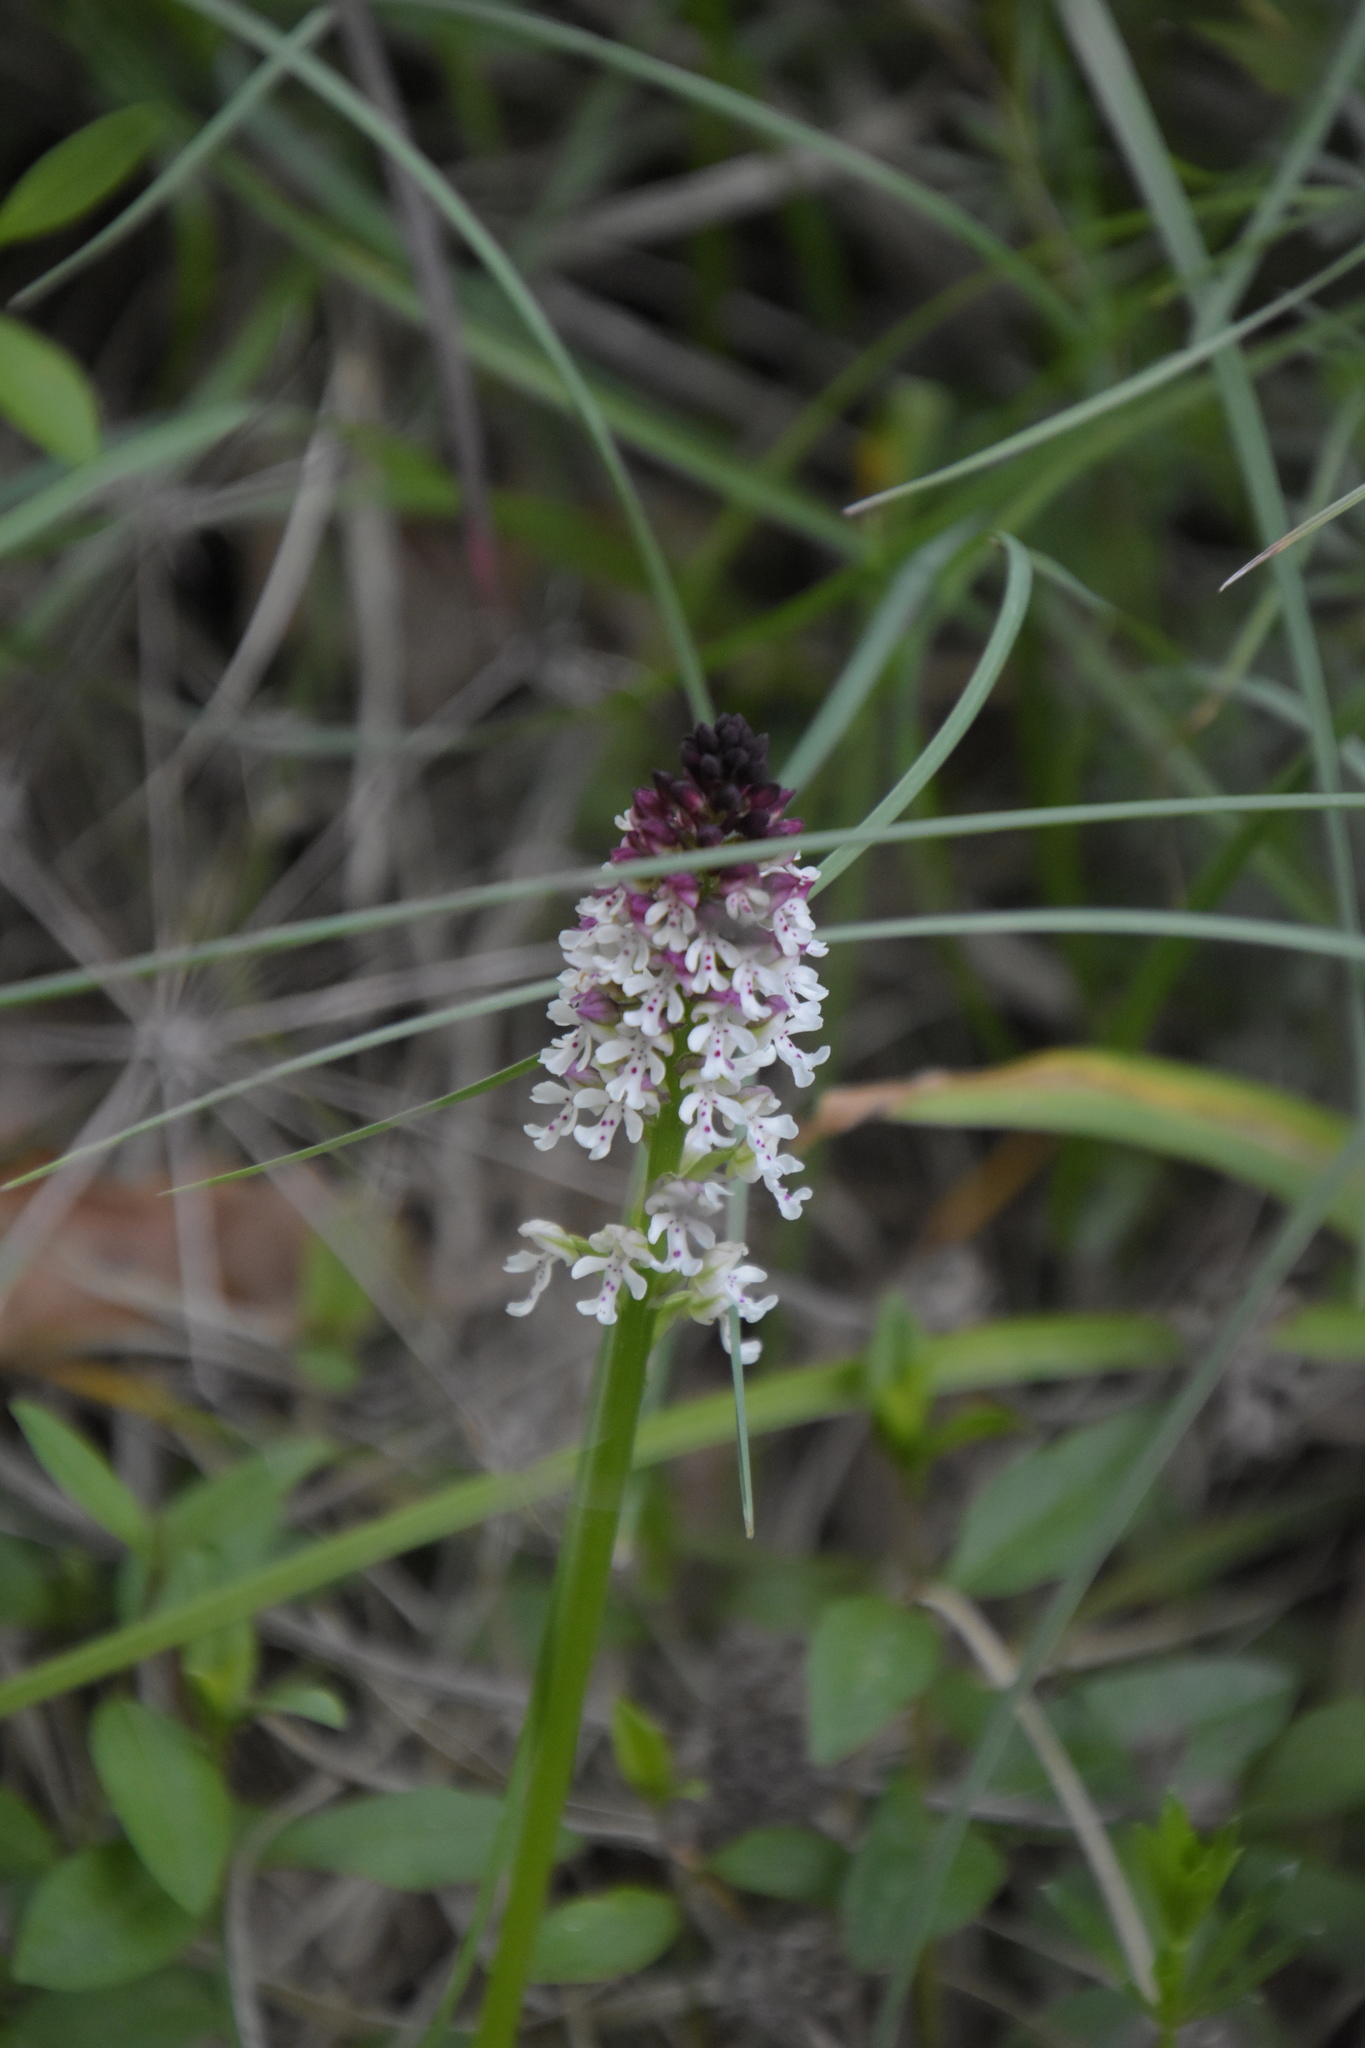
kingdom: Plantae
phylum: Tracheophyta
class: Liliopsida
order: Asparagales
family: Orchidaceae
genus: Neotinea
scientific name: Neotinea ustulata
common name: Burnt orchid
